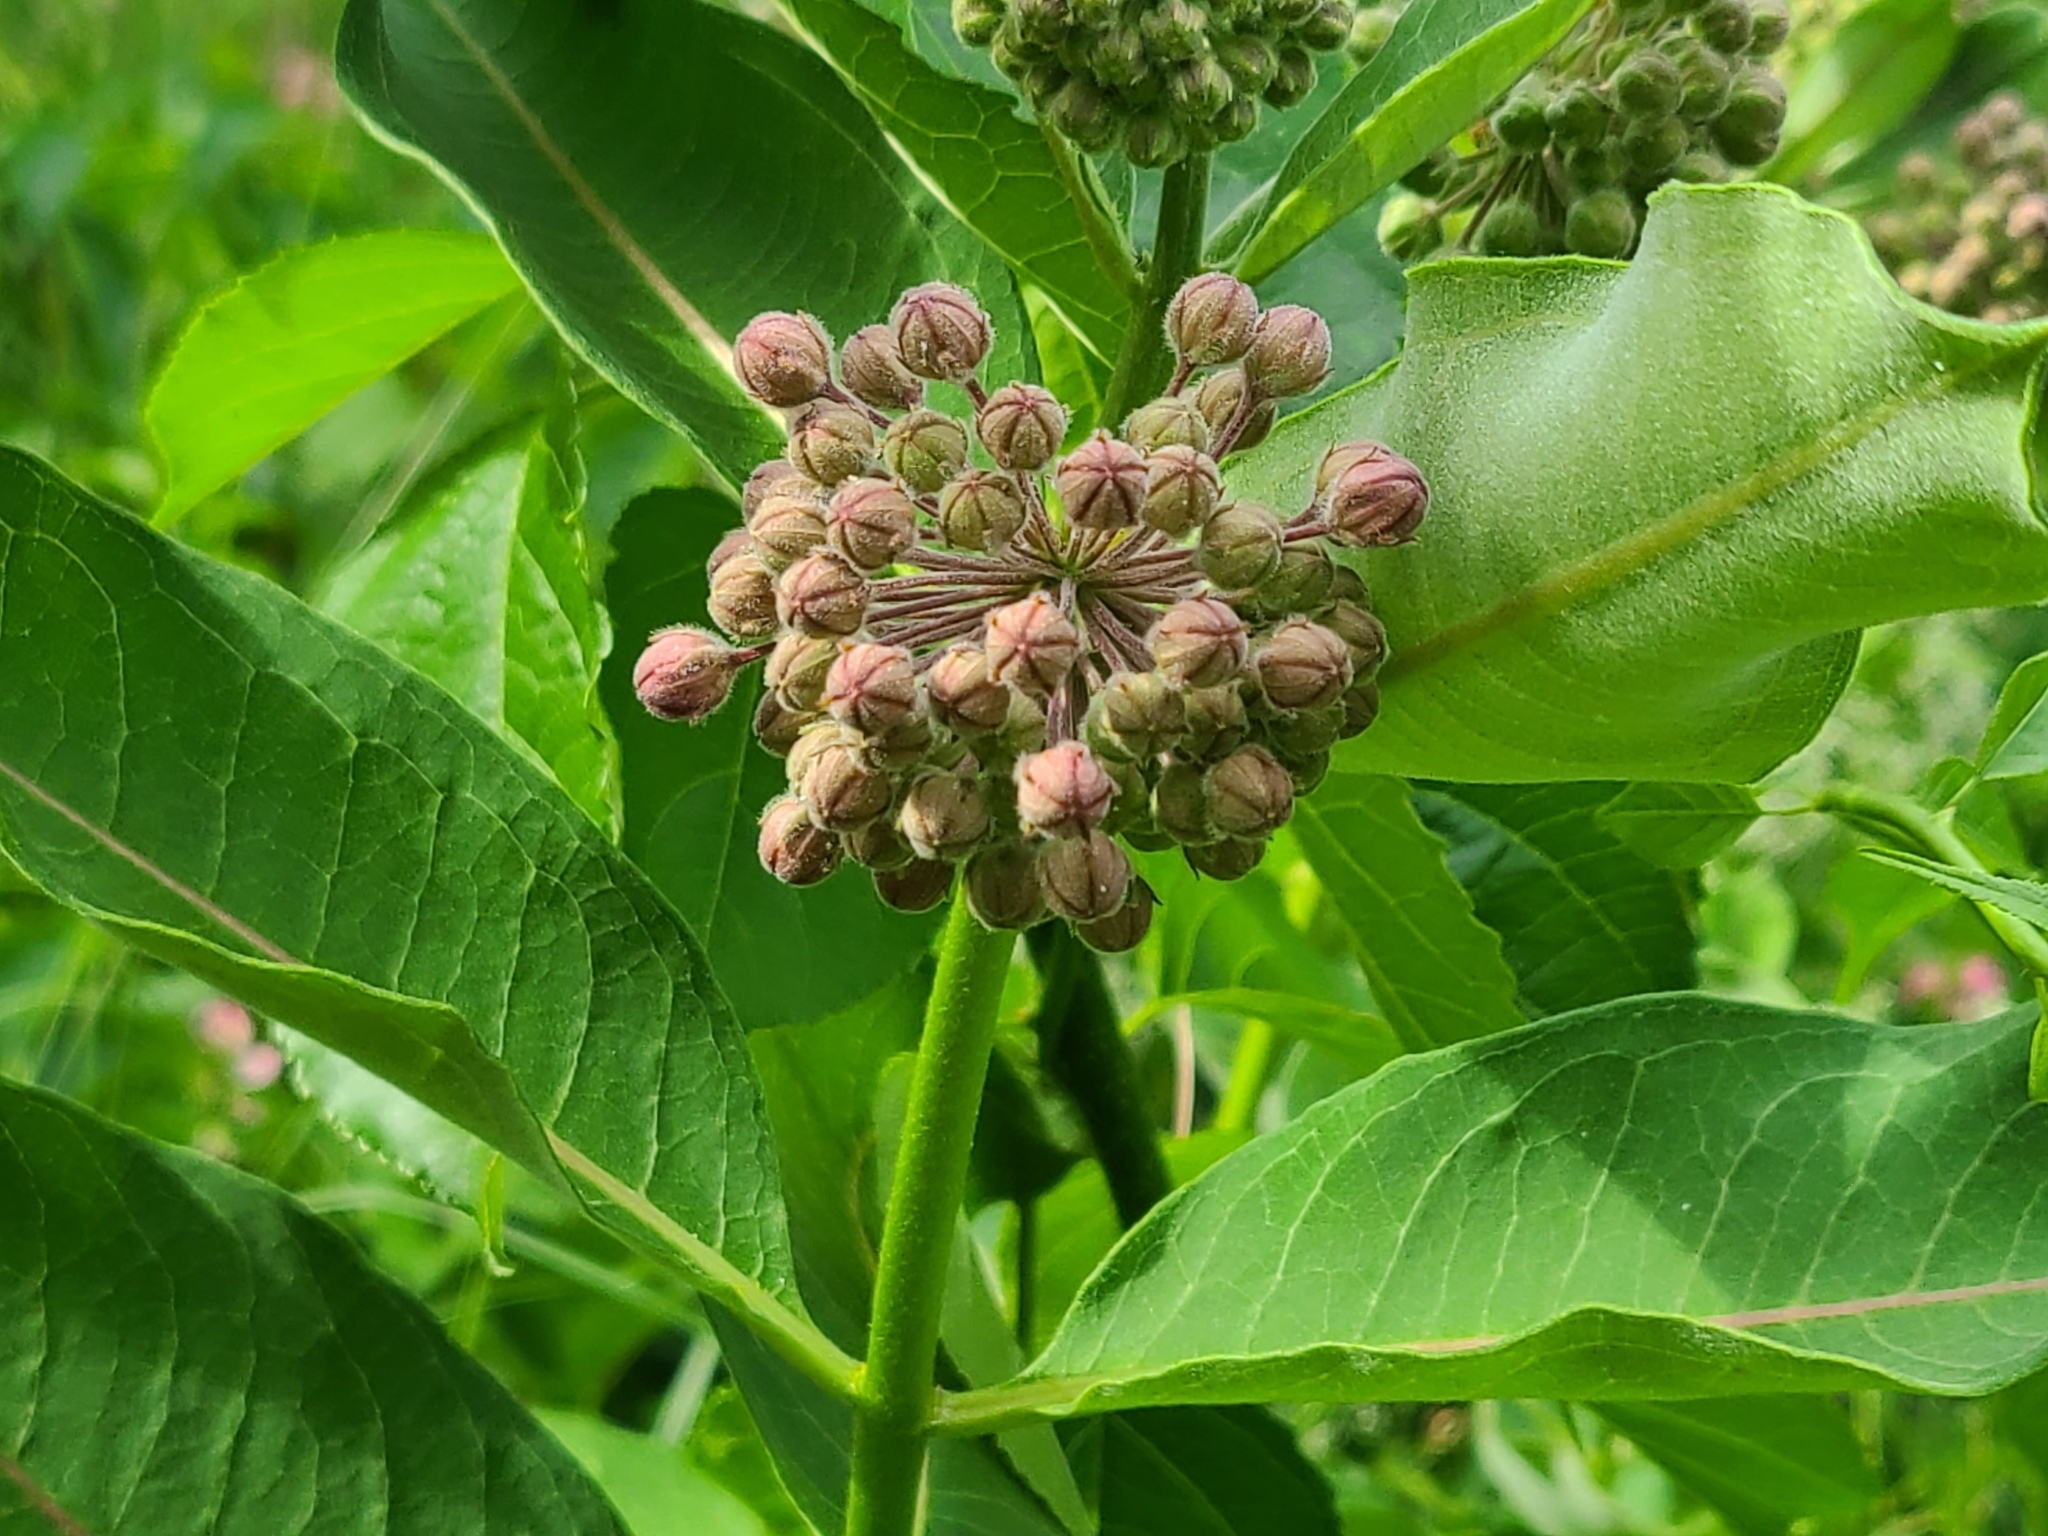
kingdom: Plantae
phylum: Tracheophyta
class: Magnoliopsida
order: Gentianales
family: Apocynaceae
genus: Asclepias
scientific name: Asclepias syriaca
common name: Common milkweed
